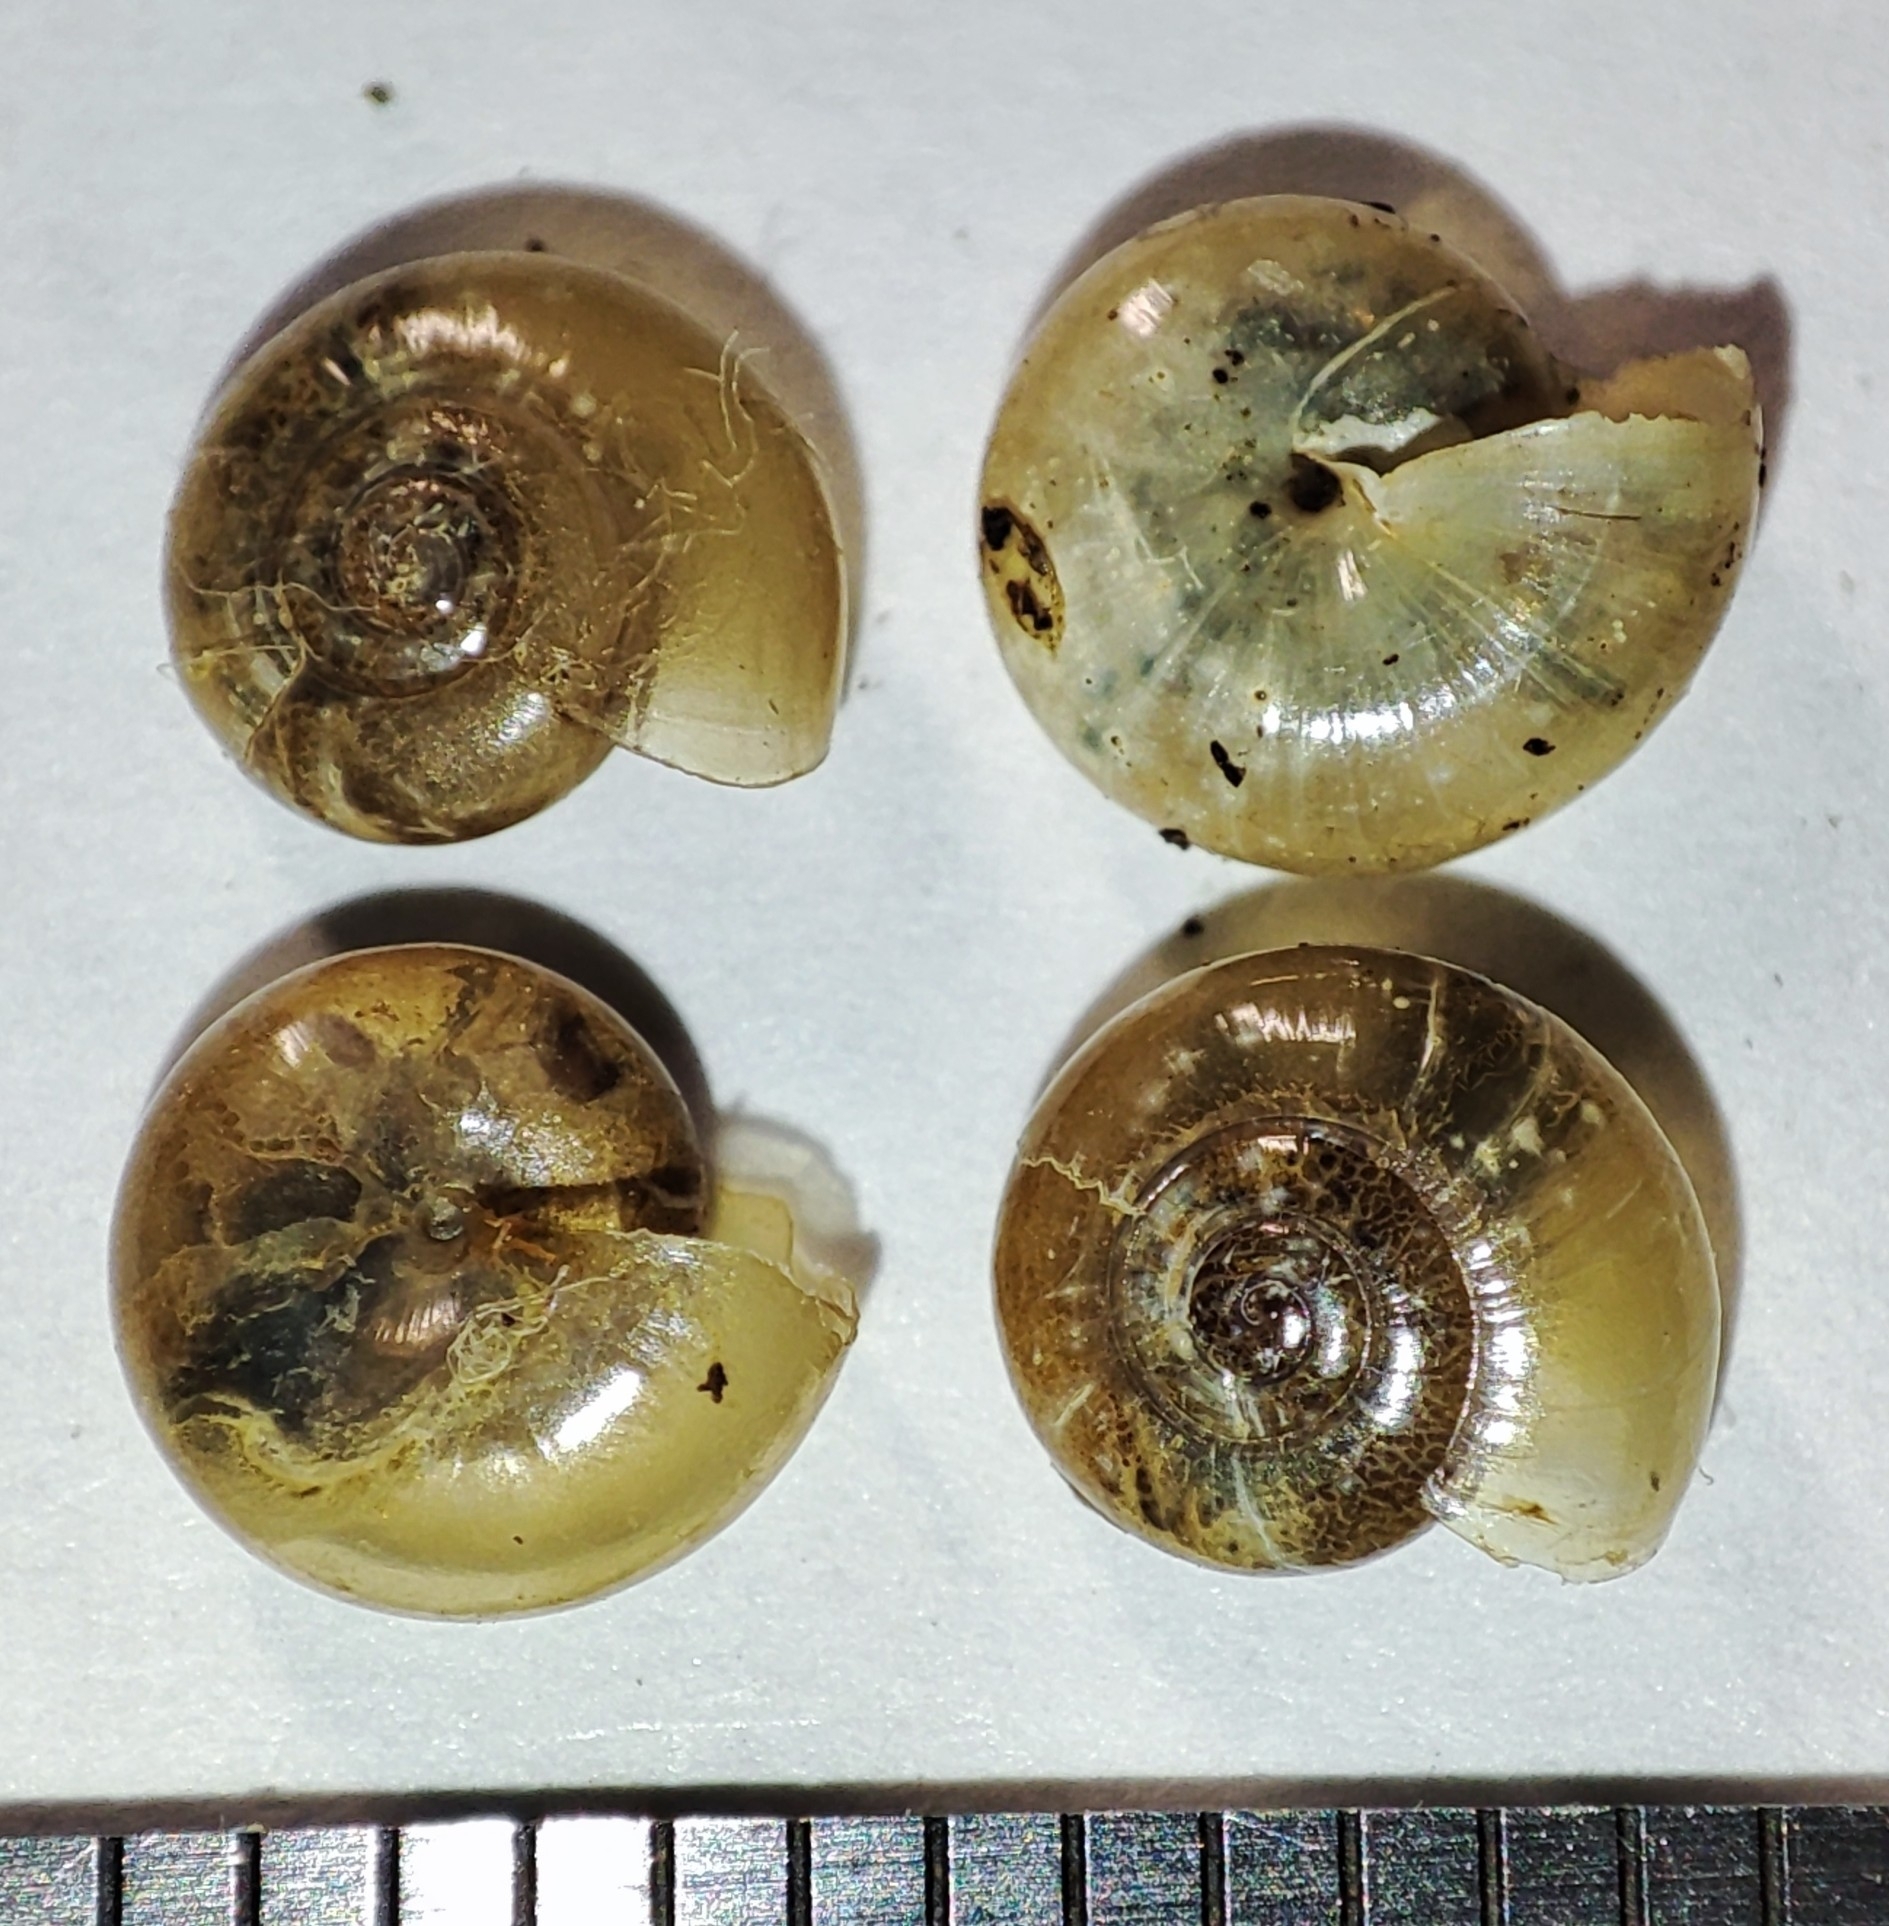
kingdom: Animalia
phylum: Mollusca
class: Gastropoda
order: Stylommatophora
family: Oxychilidae
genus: Mediterranea
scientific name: Mediterranea depressa
